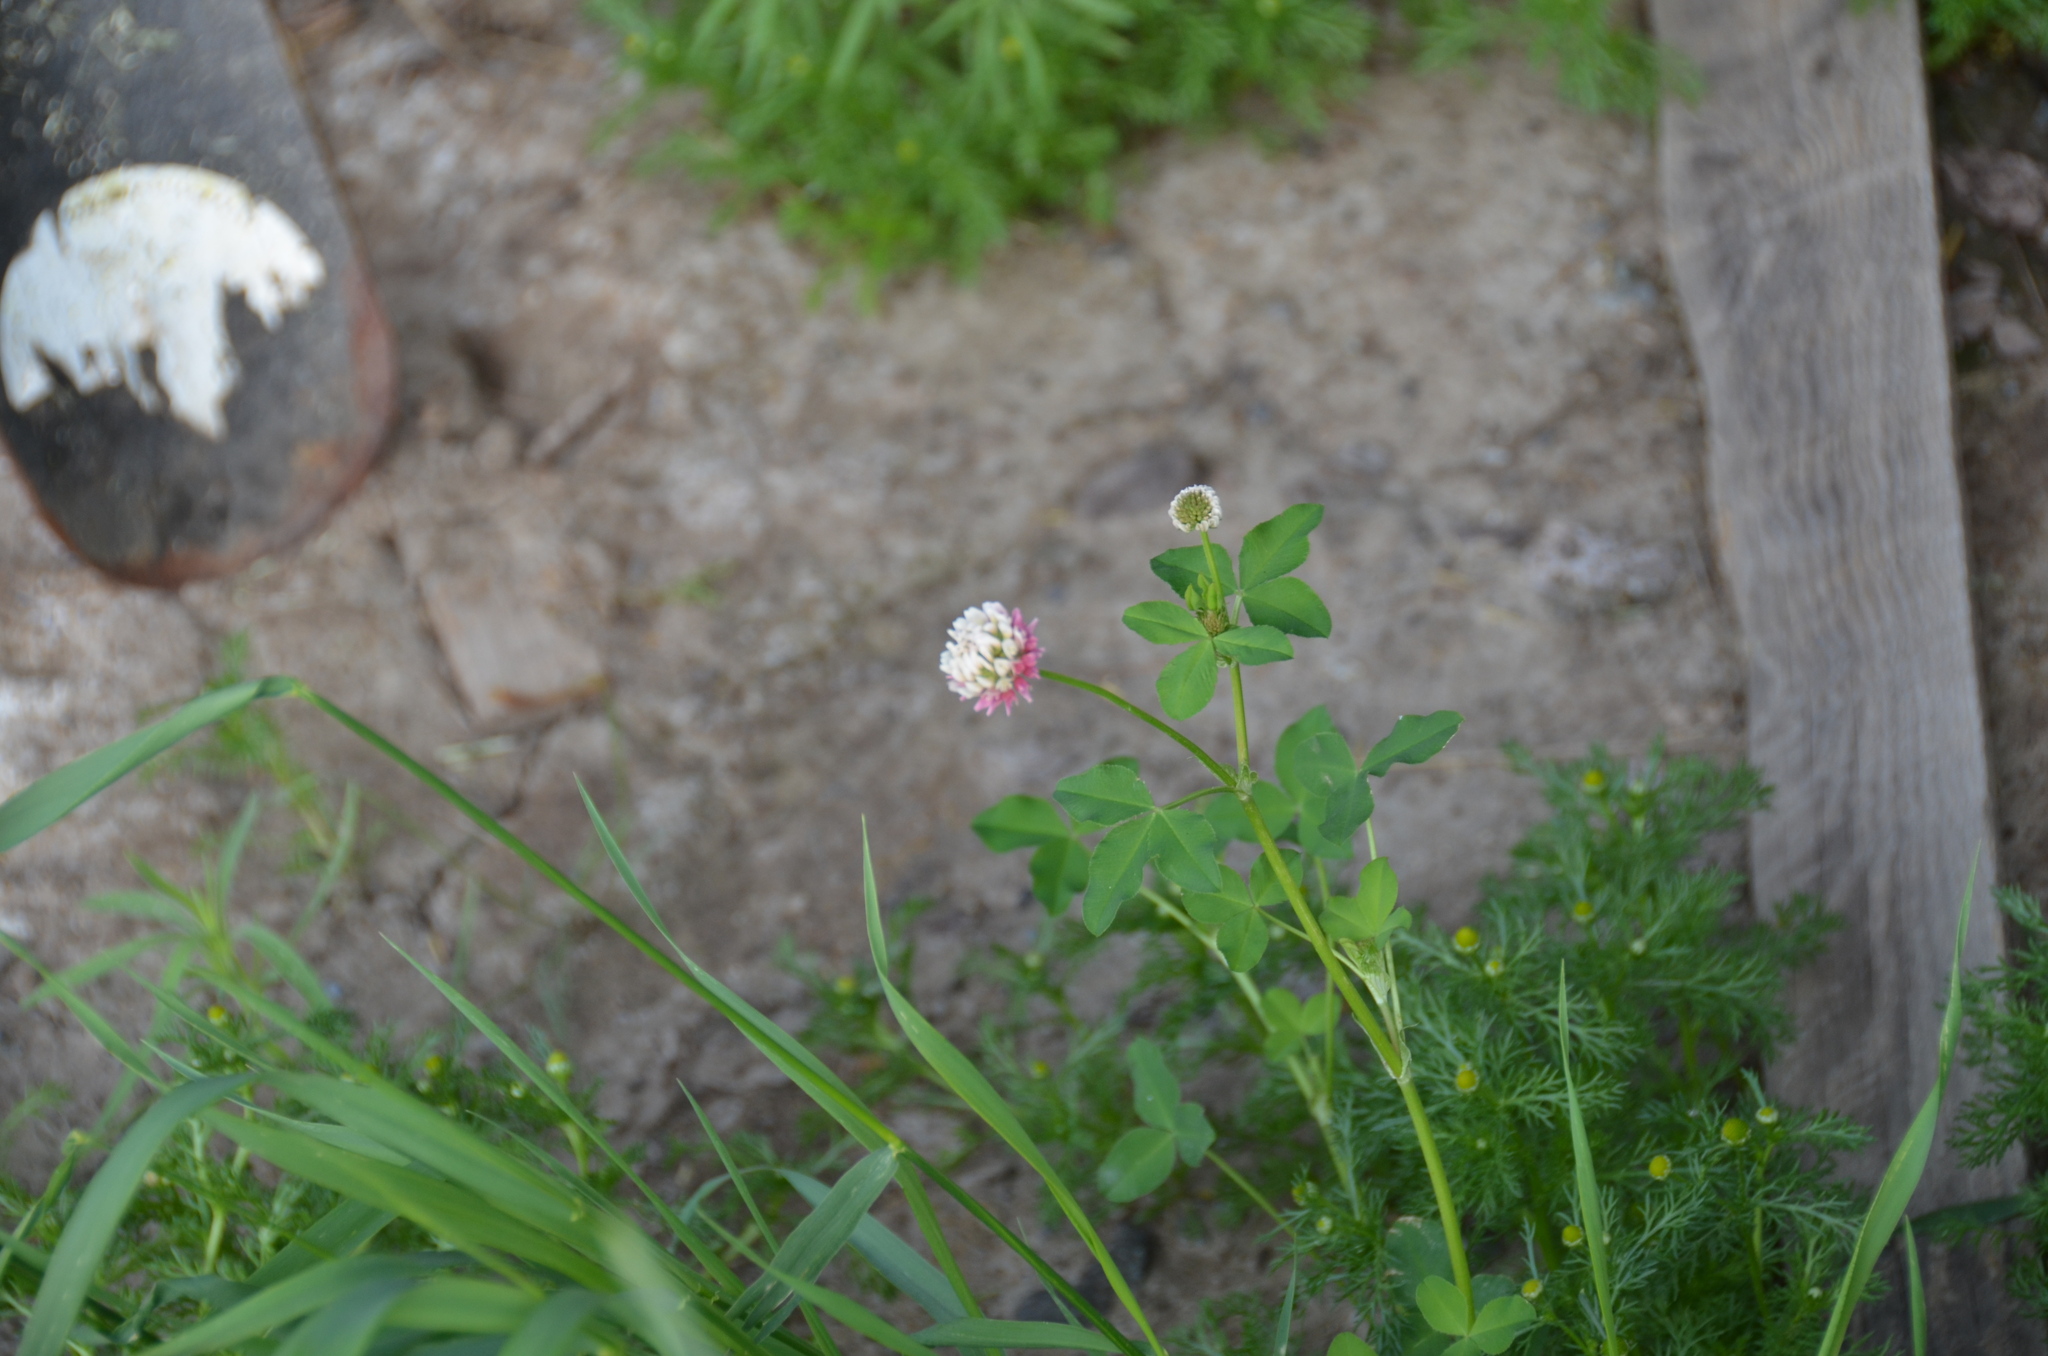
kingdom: Plantae
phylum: Tracheophyta
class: Magnoliopsida
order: Fabales
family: Fabaceae
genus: Trifolium
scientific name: Trifolium hybridum
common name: Alsike clover
